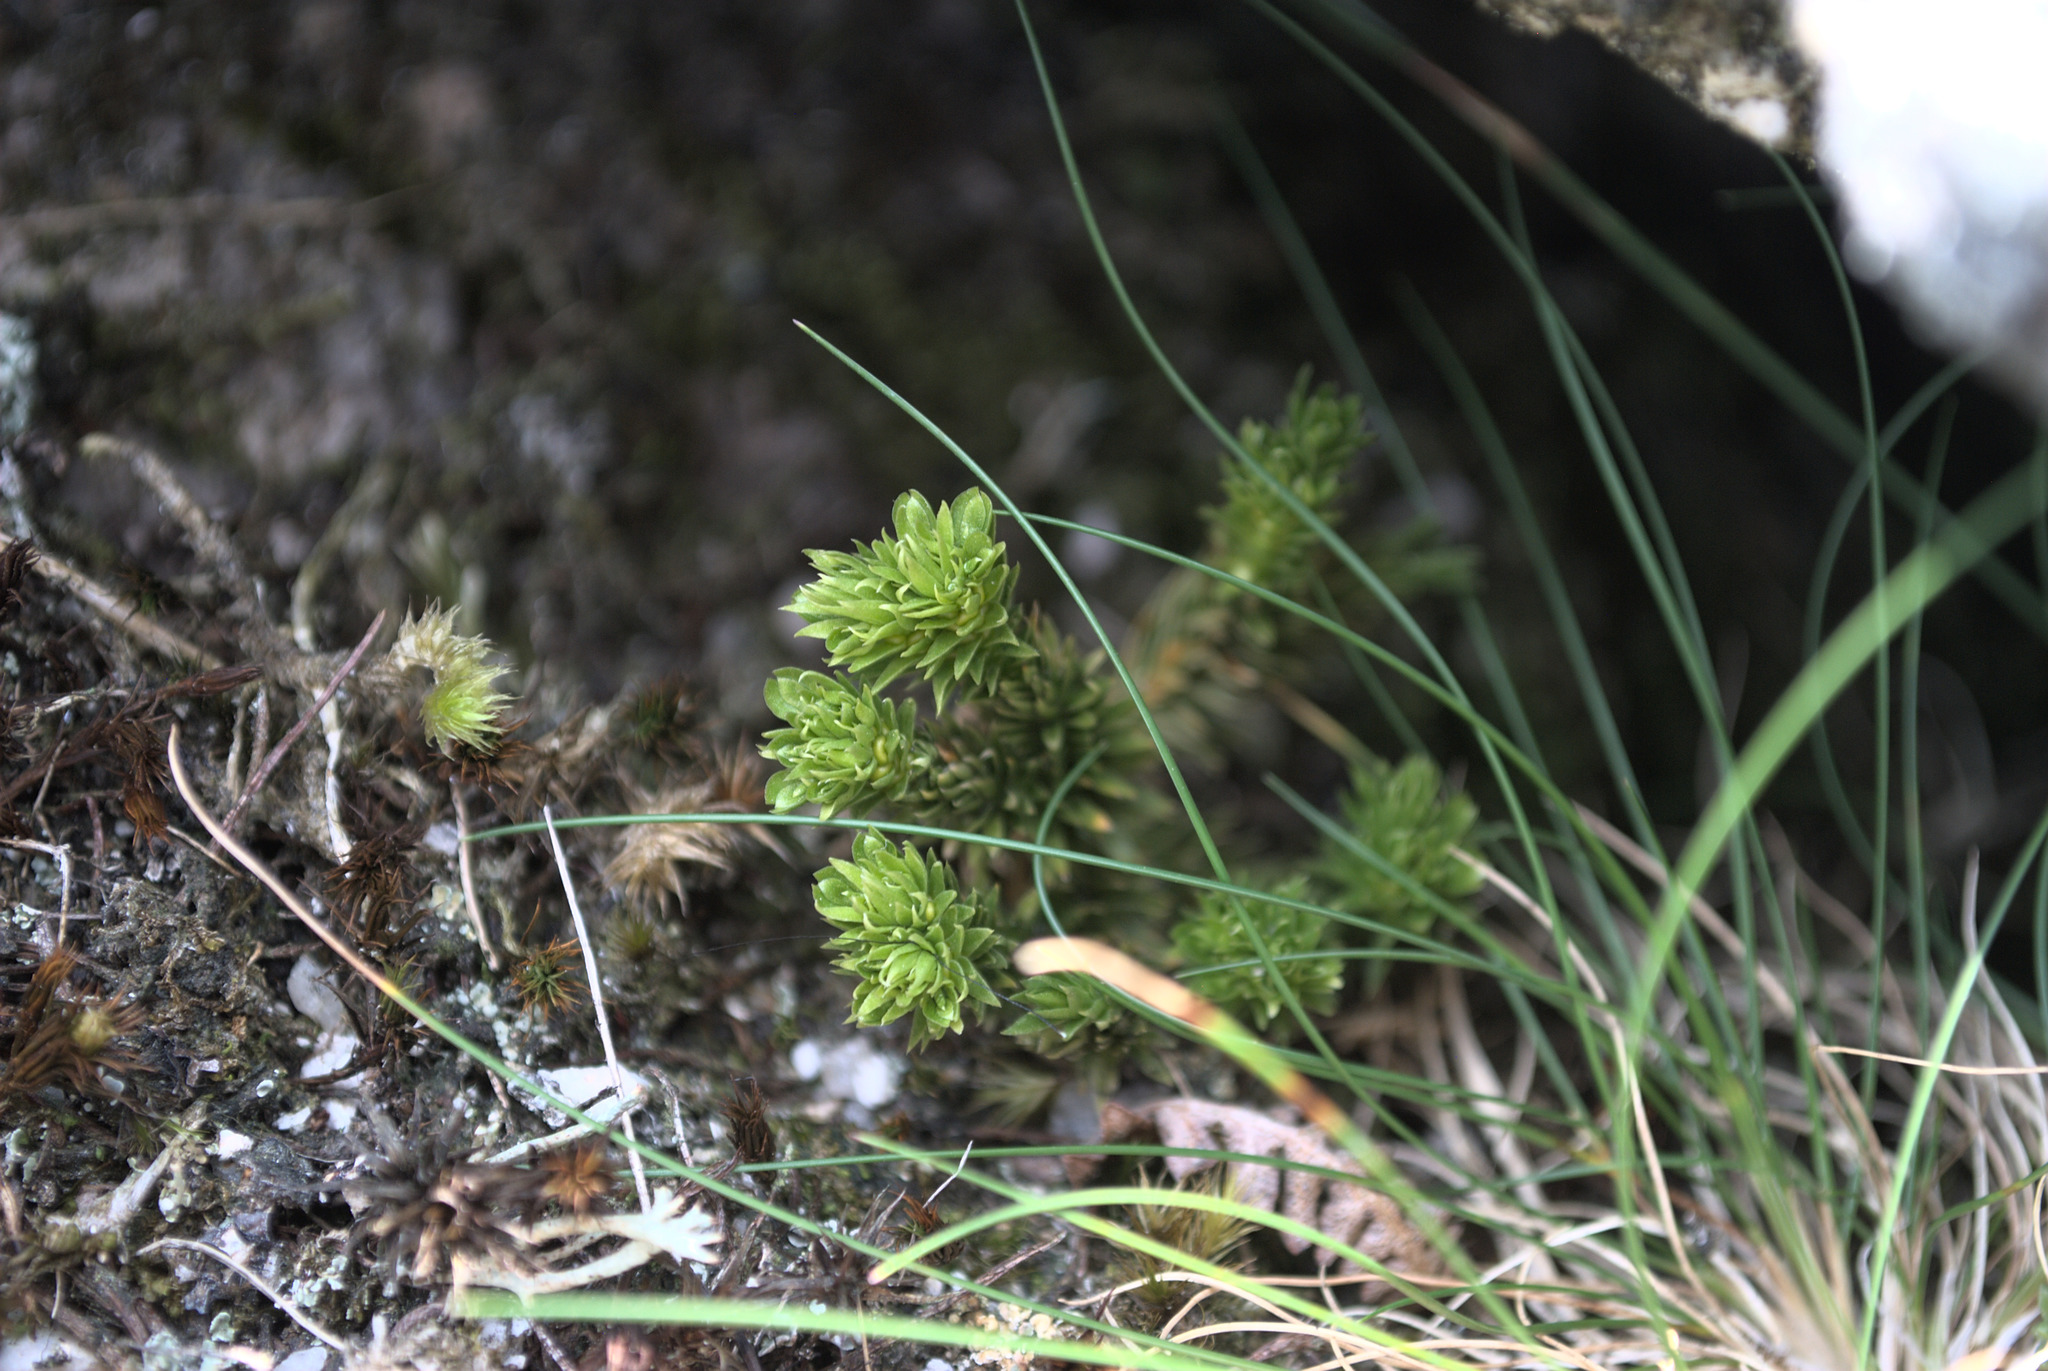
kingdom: Plantae
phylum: Tracheophyta
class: Lycopodiopsida
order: Lycopodiales
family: Lycopodiaceae
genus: Huperzia
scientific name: Huperzia selago
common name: Northern firmoss
